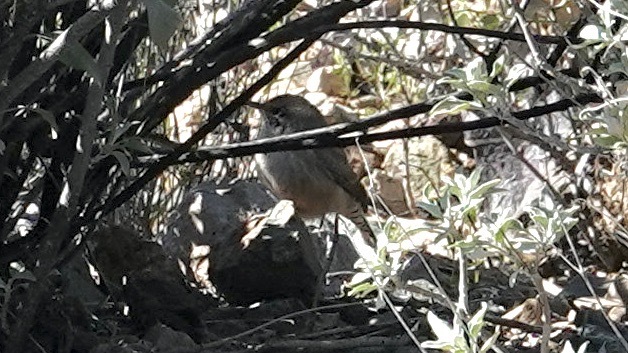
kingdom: Animalia
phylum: Chordata
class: Aves
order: Passeriformes
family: Troglodytidae
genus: Salpinctes
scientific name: Salpinctes obsoletus
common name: Rock wren
